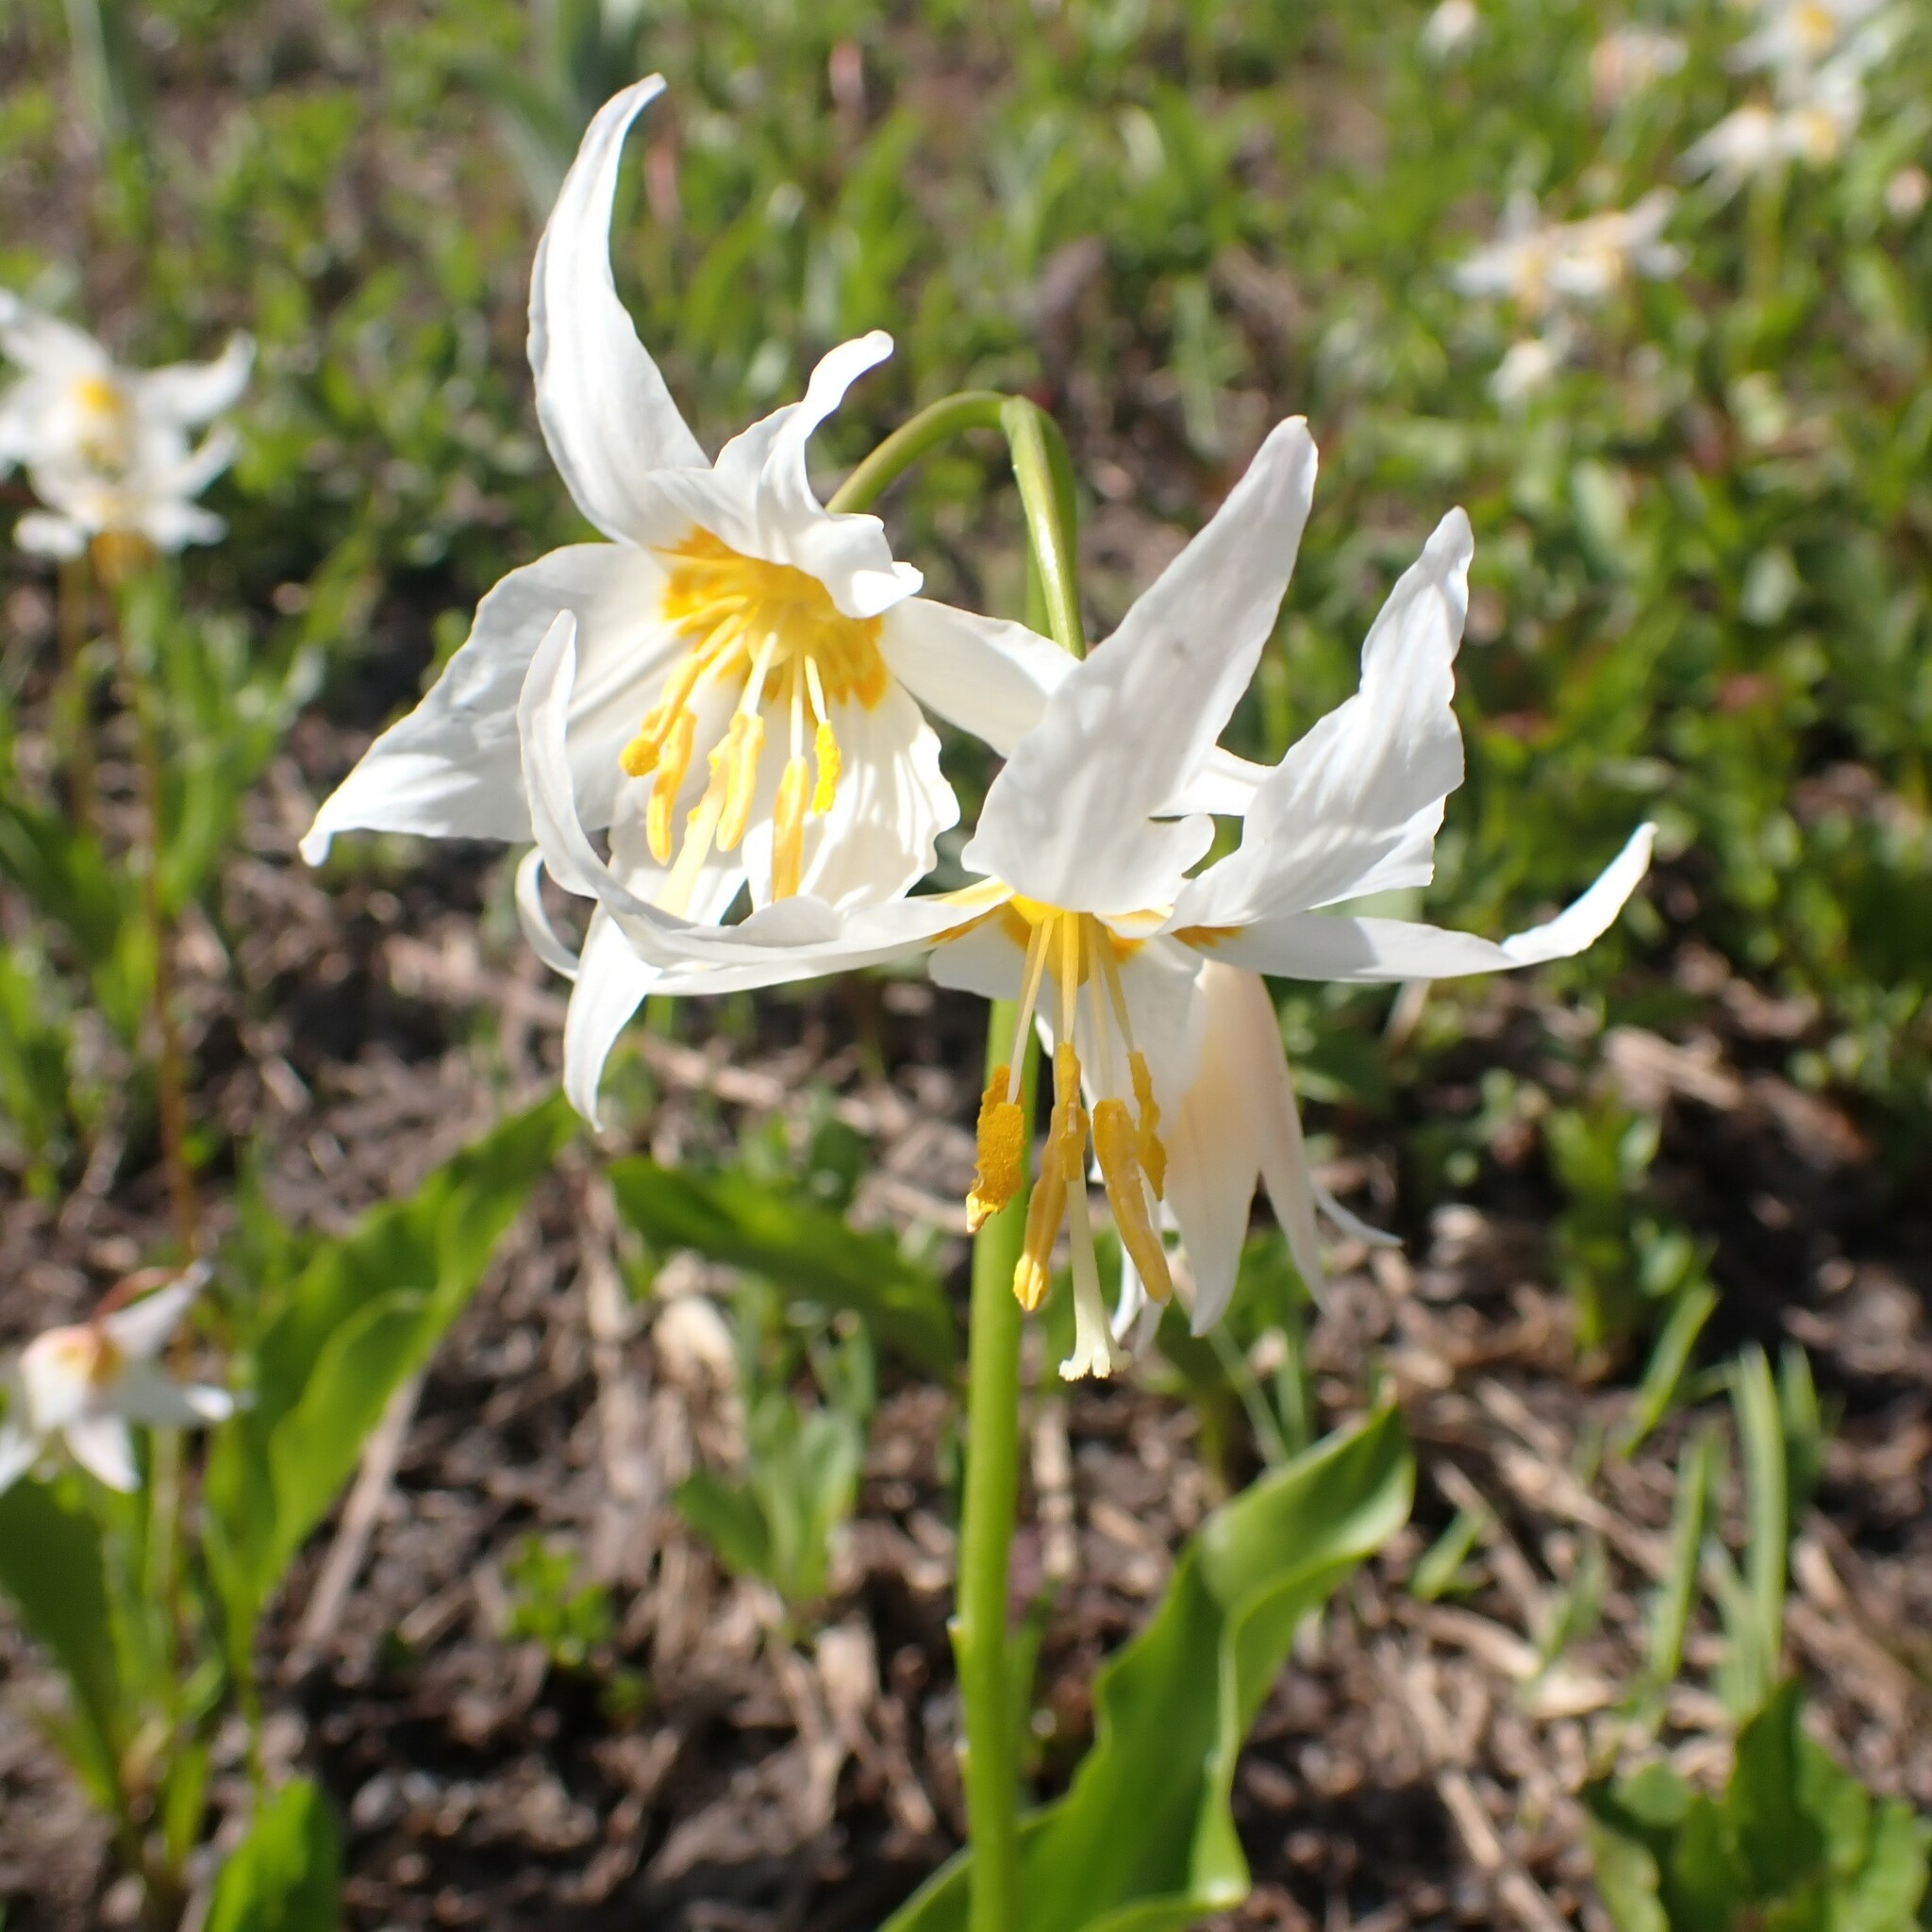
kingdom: Plantae
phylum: Tracheophyta
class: Liliopsida
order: Liliales
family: Liliaceae
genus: Erythronium
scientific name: Erythronium montanum
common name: Avalanche lily
